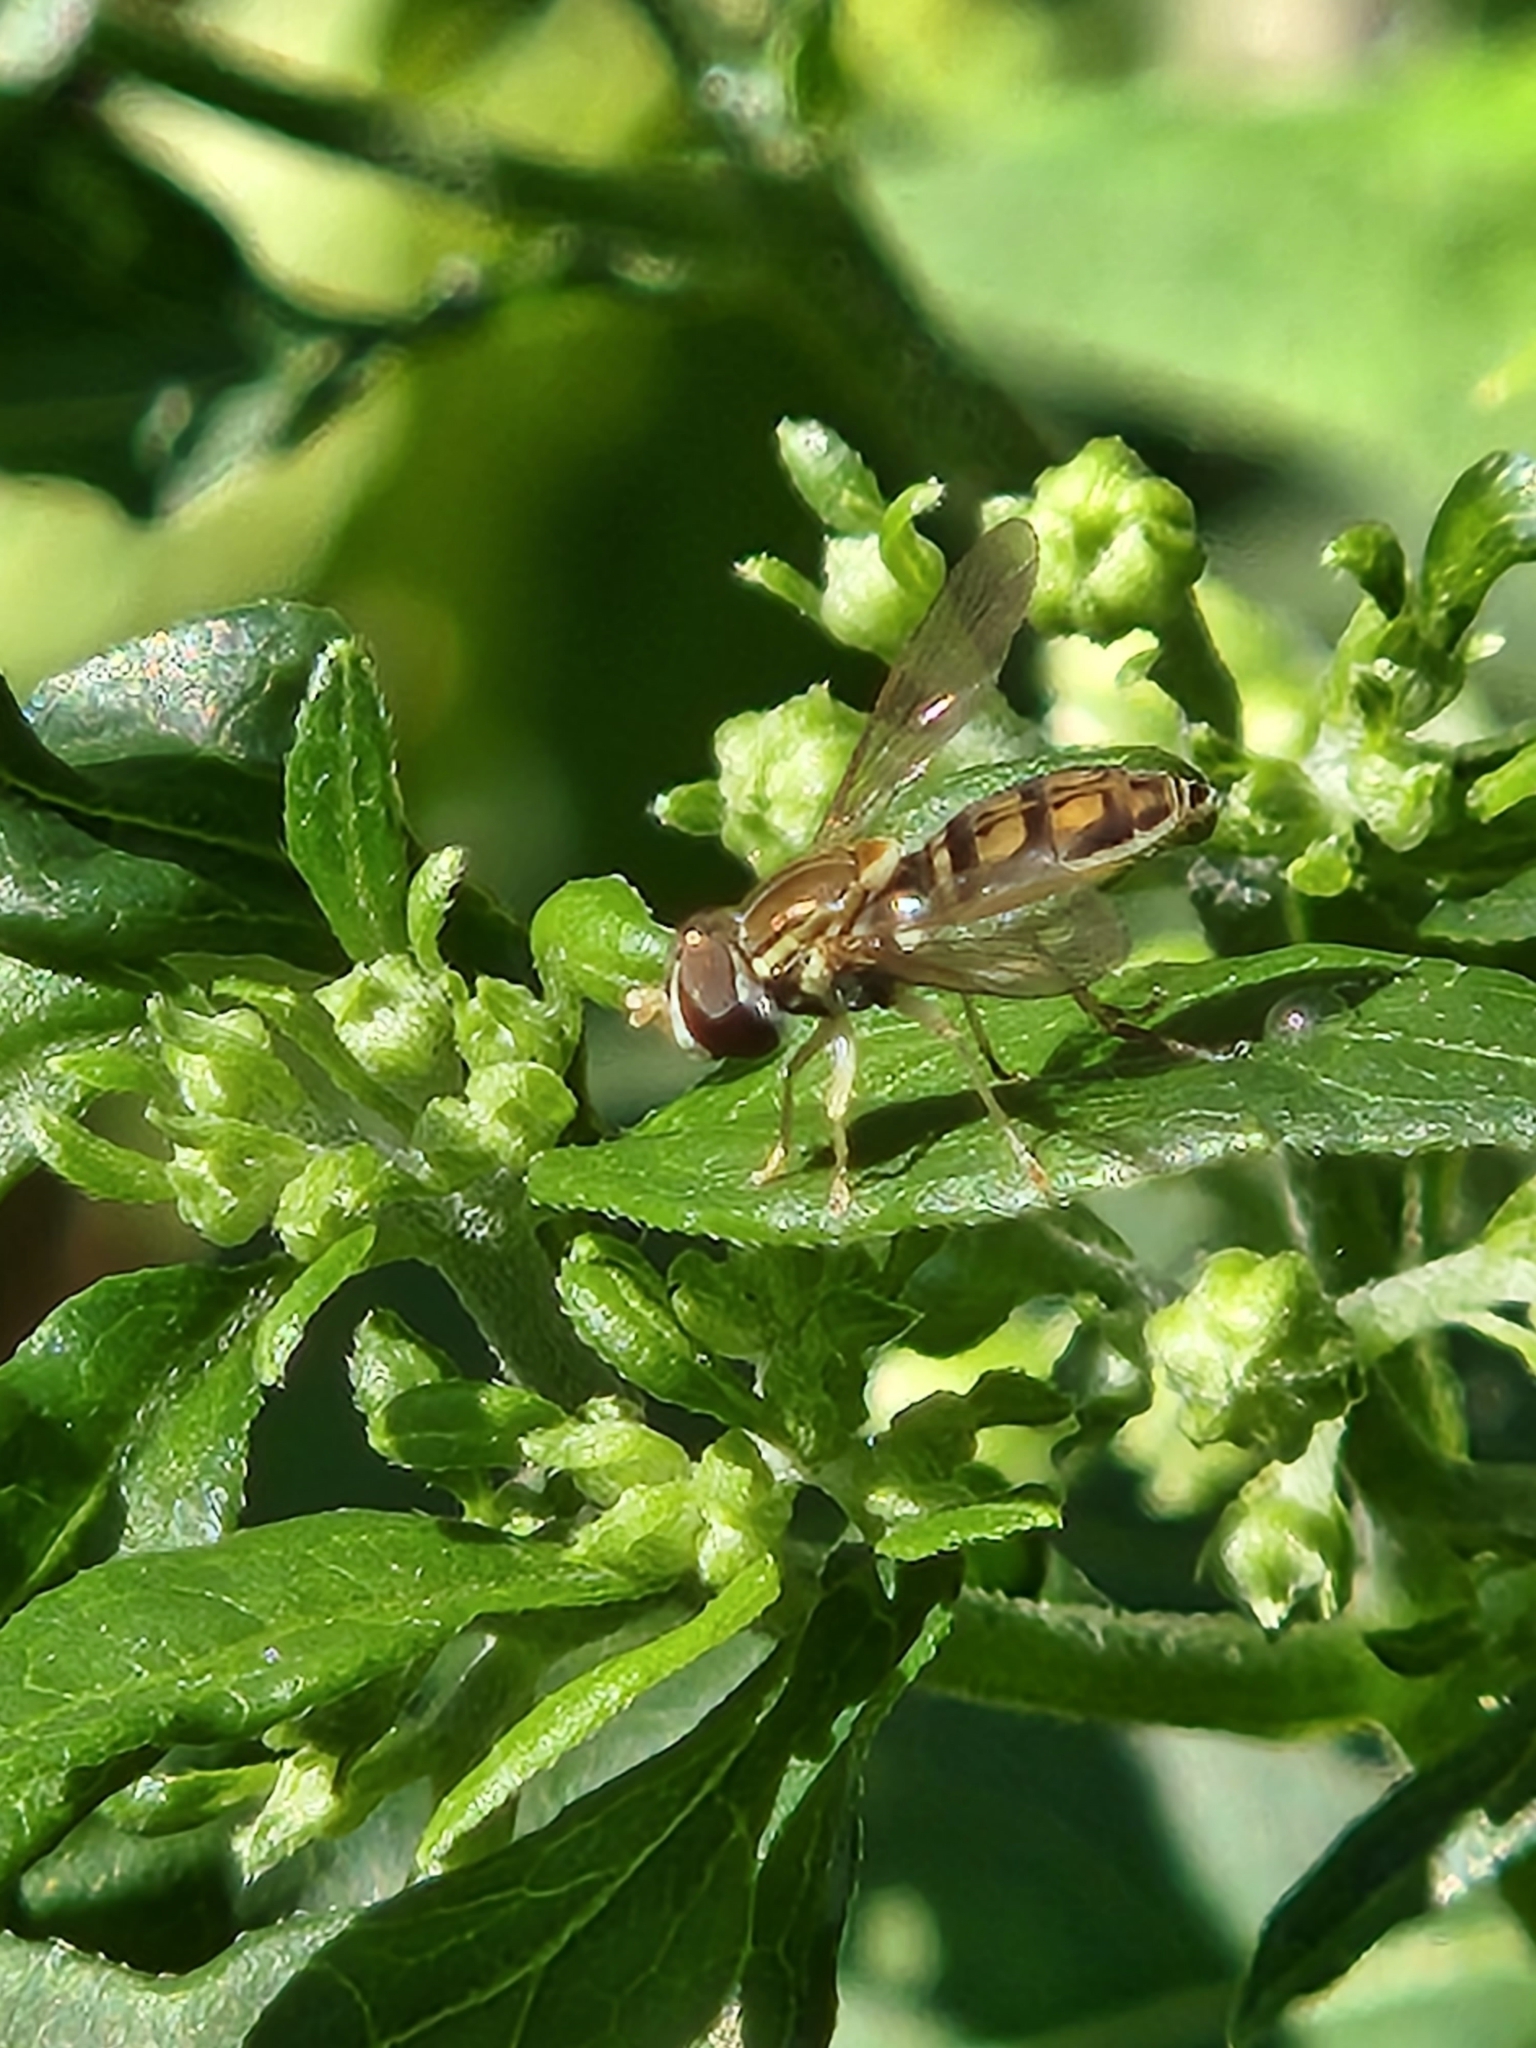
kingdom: Animalia
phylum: Arthropoda
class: Insecta
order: Diptera
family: Syrphidae
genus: Toxomerus
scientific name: Toxomerus marginatus
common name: Syrphid fly
